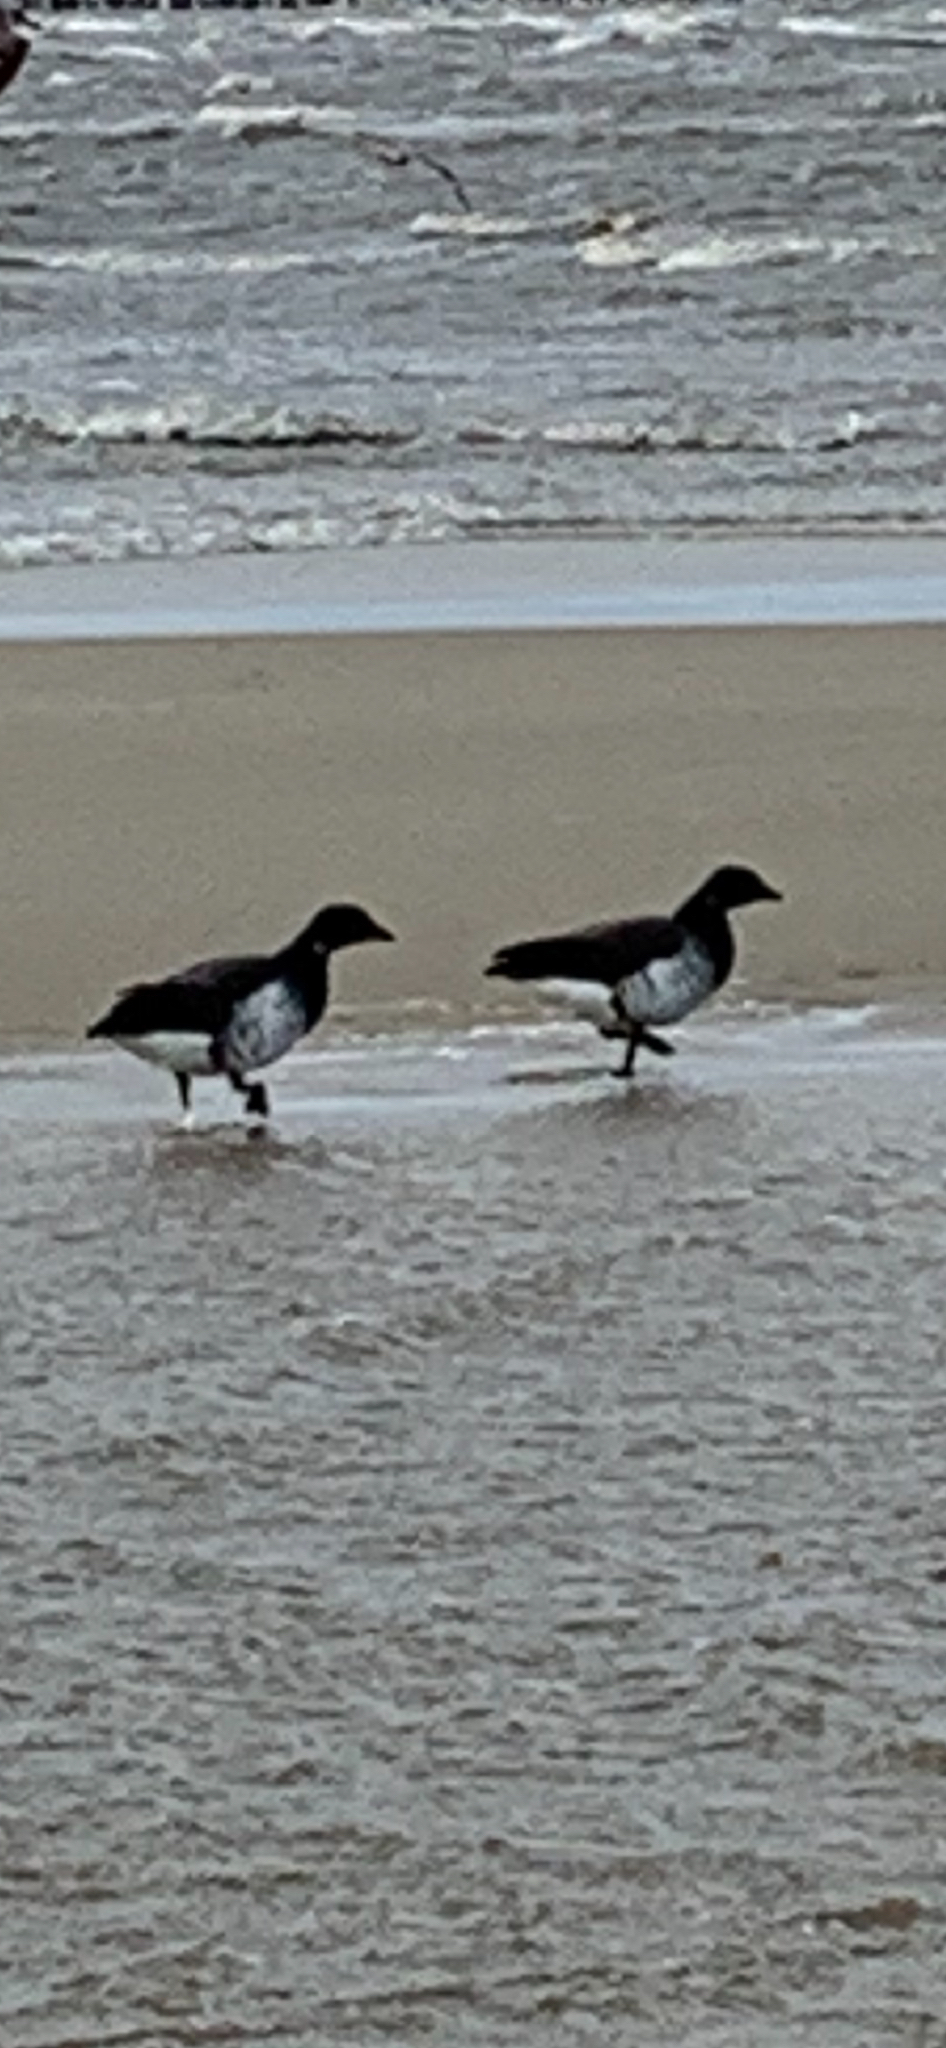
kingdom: Animalia
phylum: Chordata
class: Aves
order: Anseriformes
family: Anatidae
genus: Branta
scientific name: Branta bernicla
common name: Brant goose
